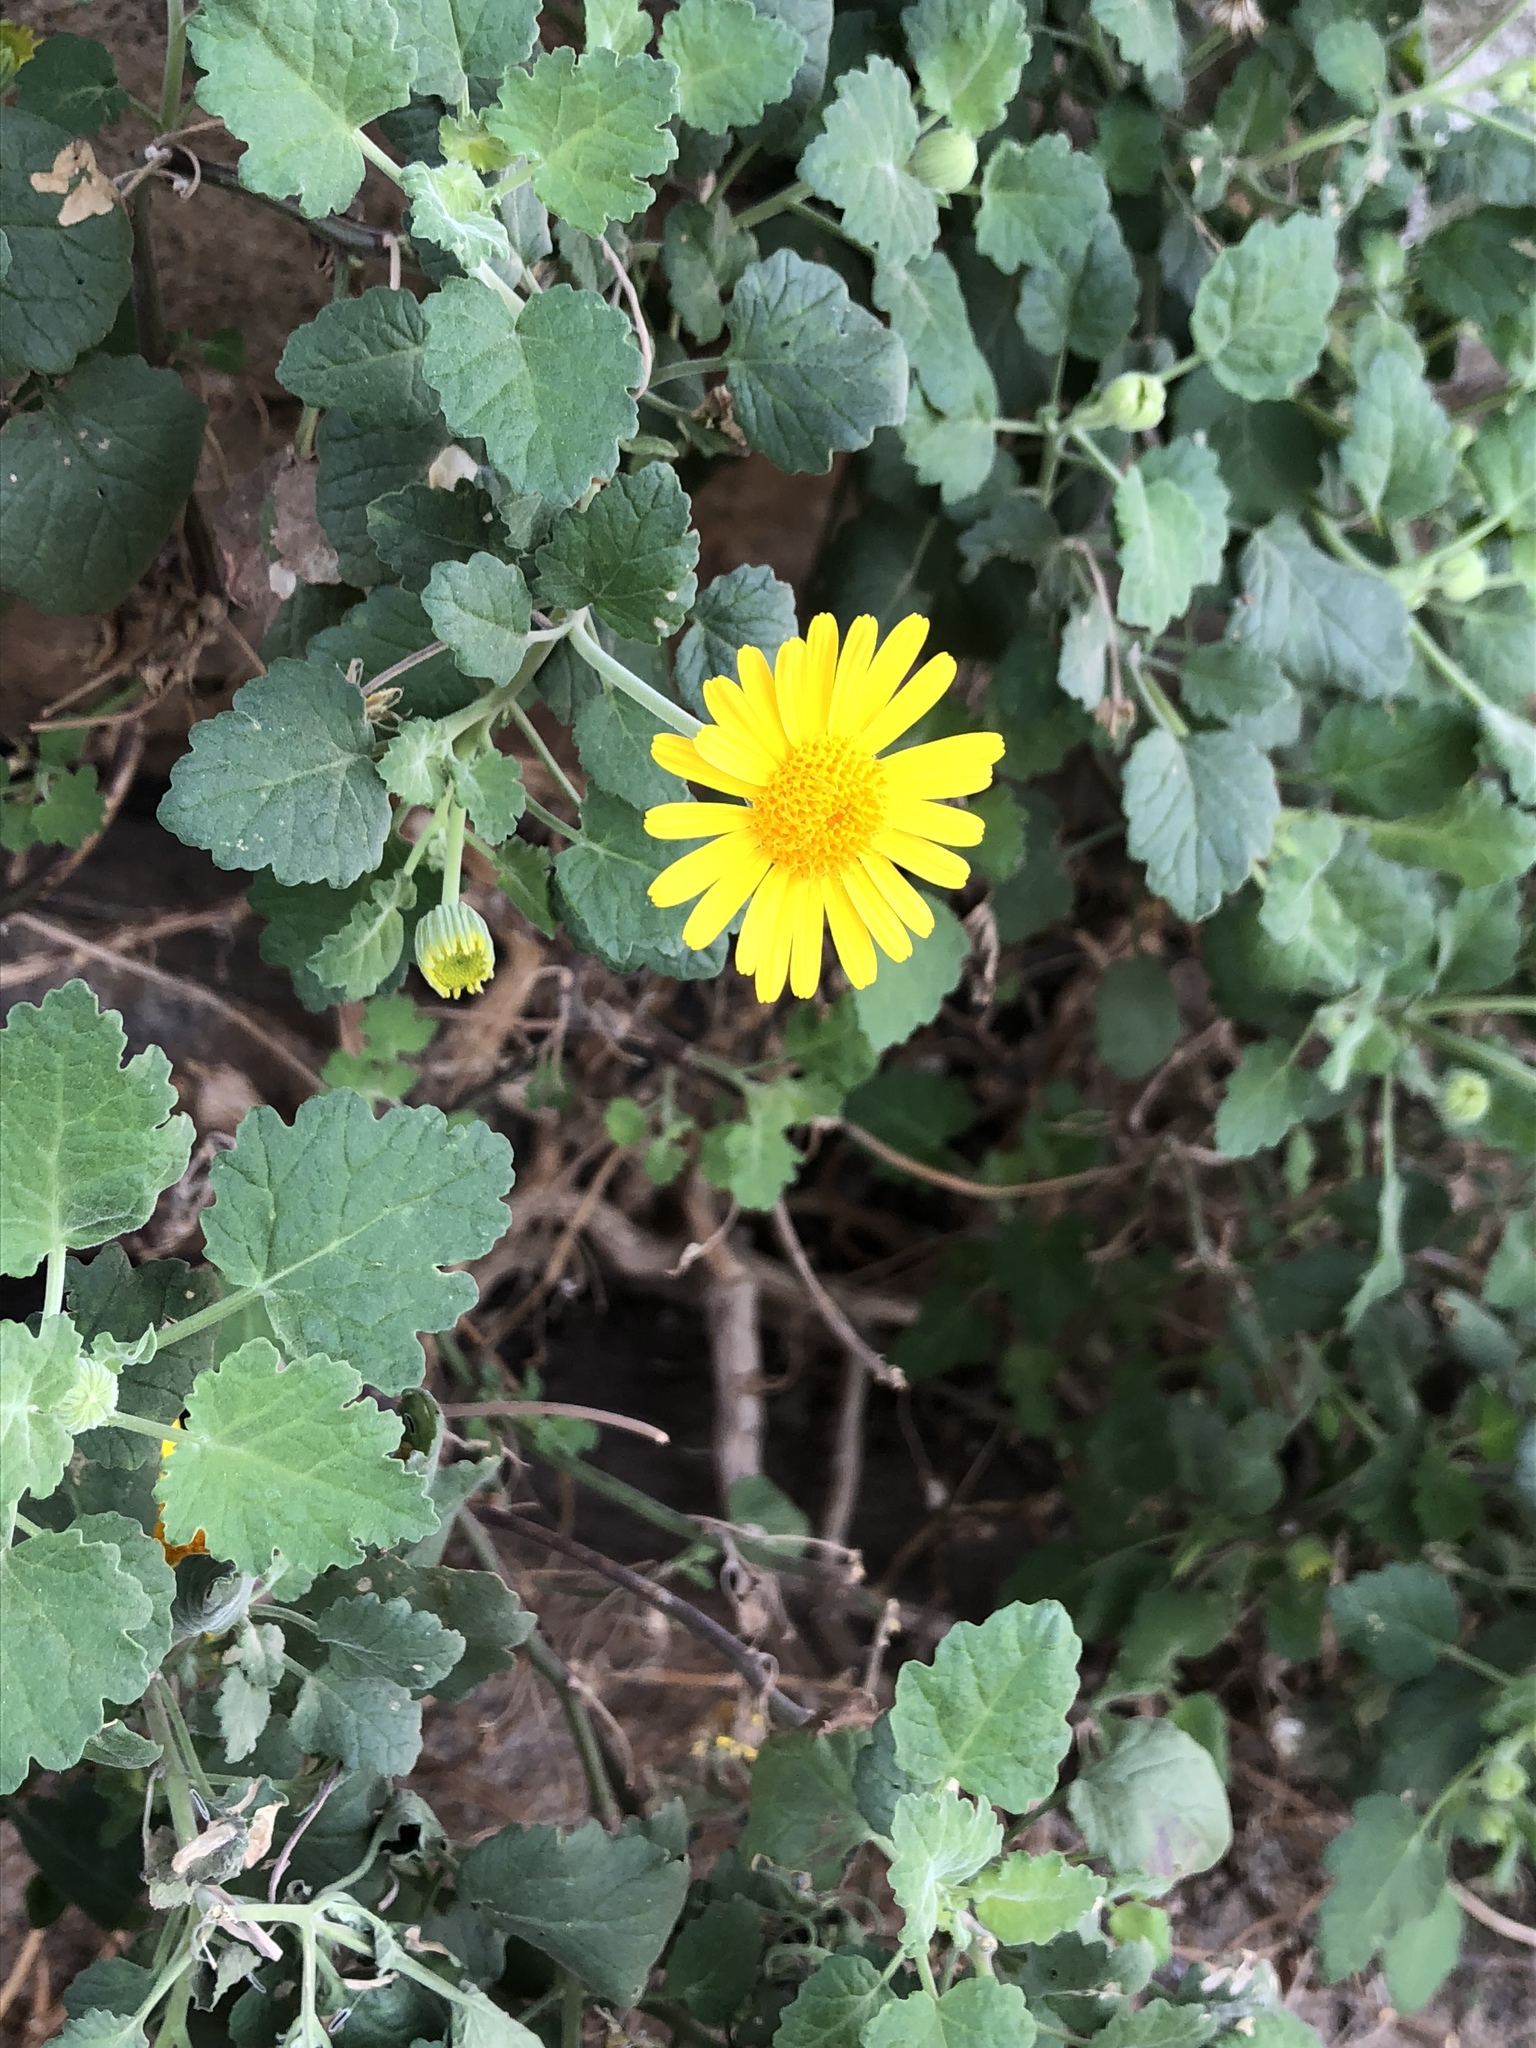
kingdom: Plantae
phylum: Tracheophyta
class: Magnoliopsida
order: Asterales
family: Asteraceae
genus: Laphamia
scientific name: Laphamia leptoglossa
